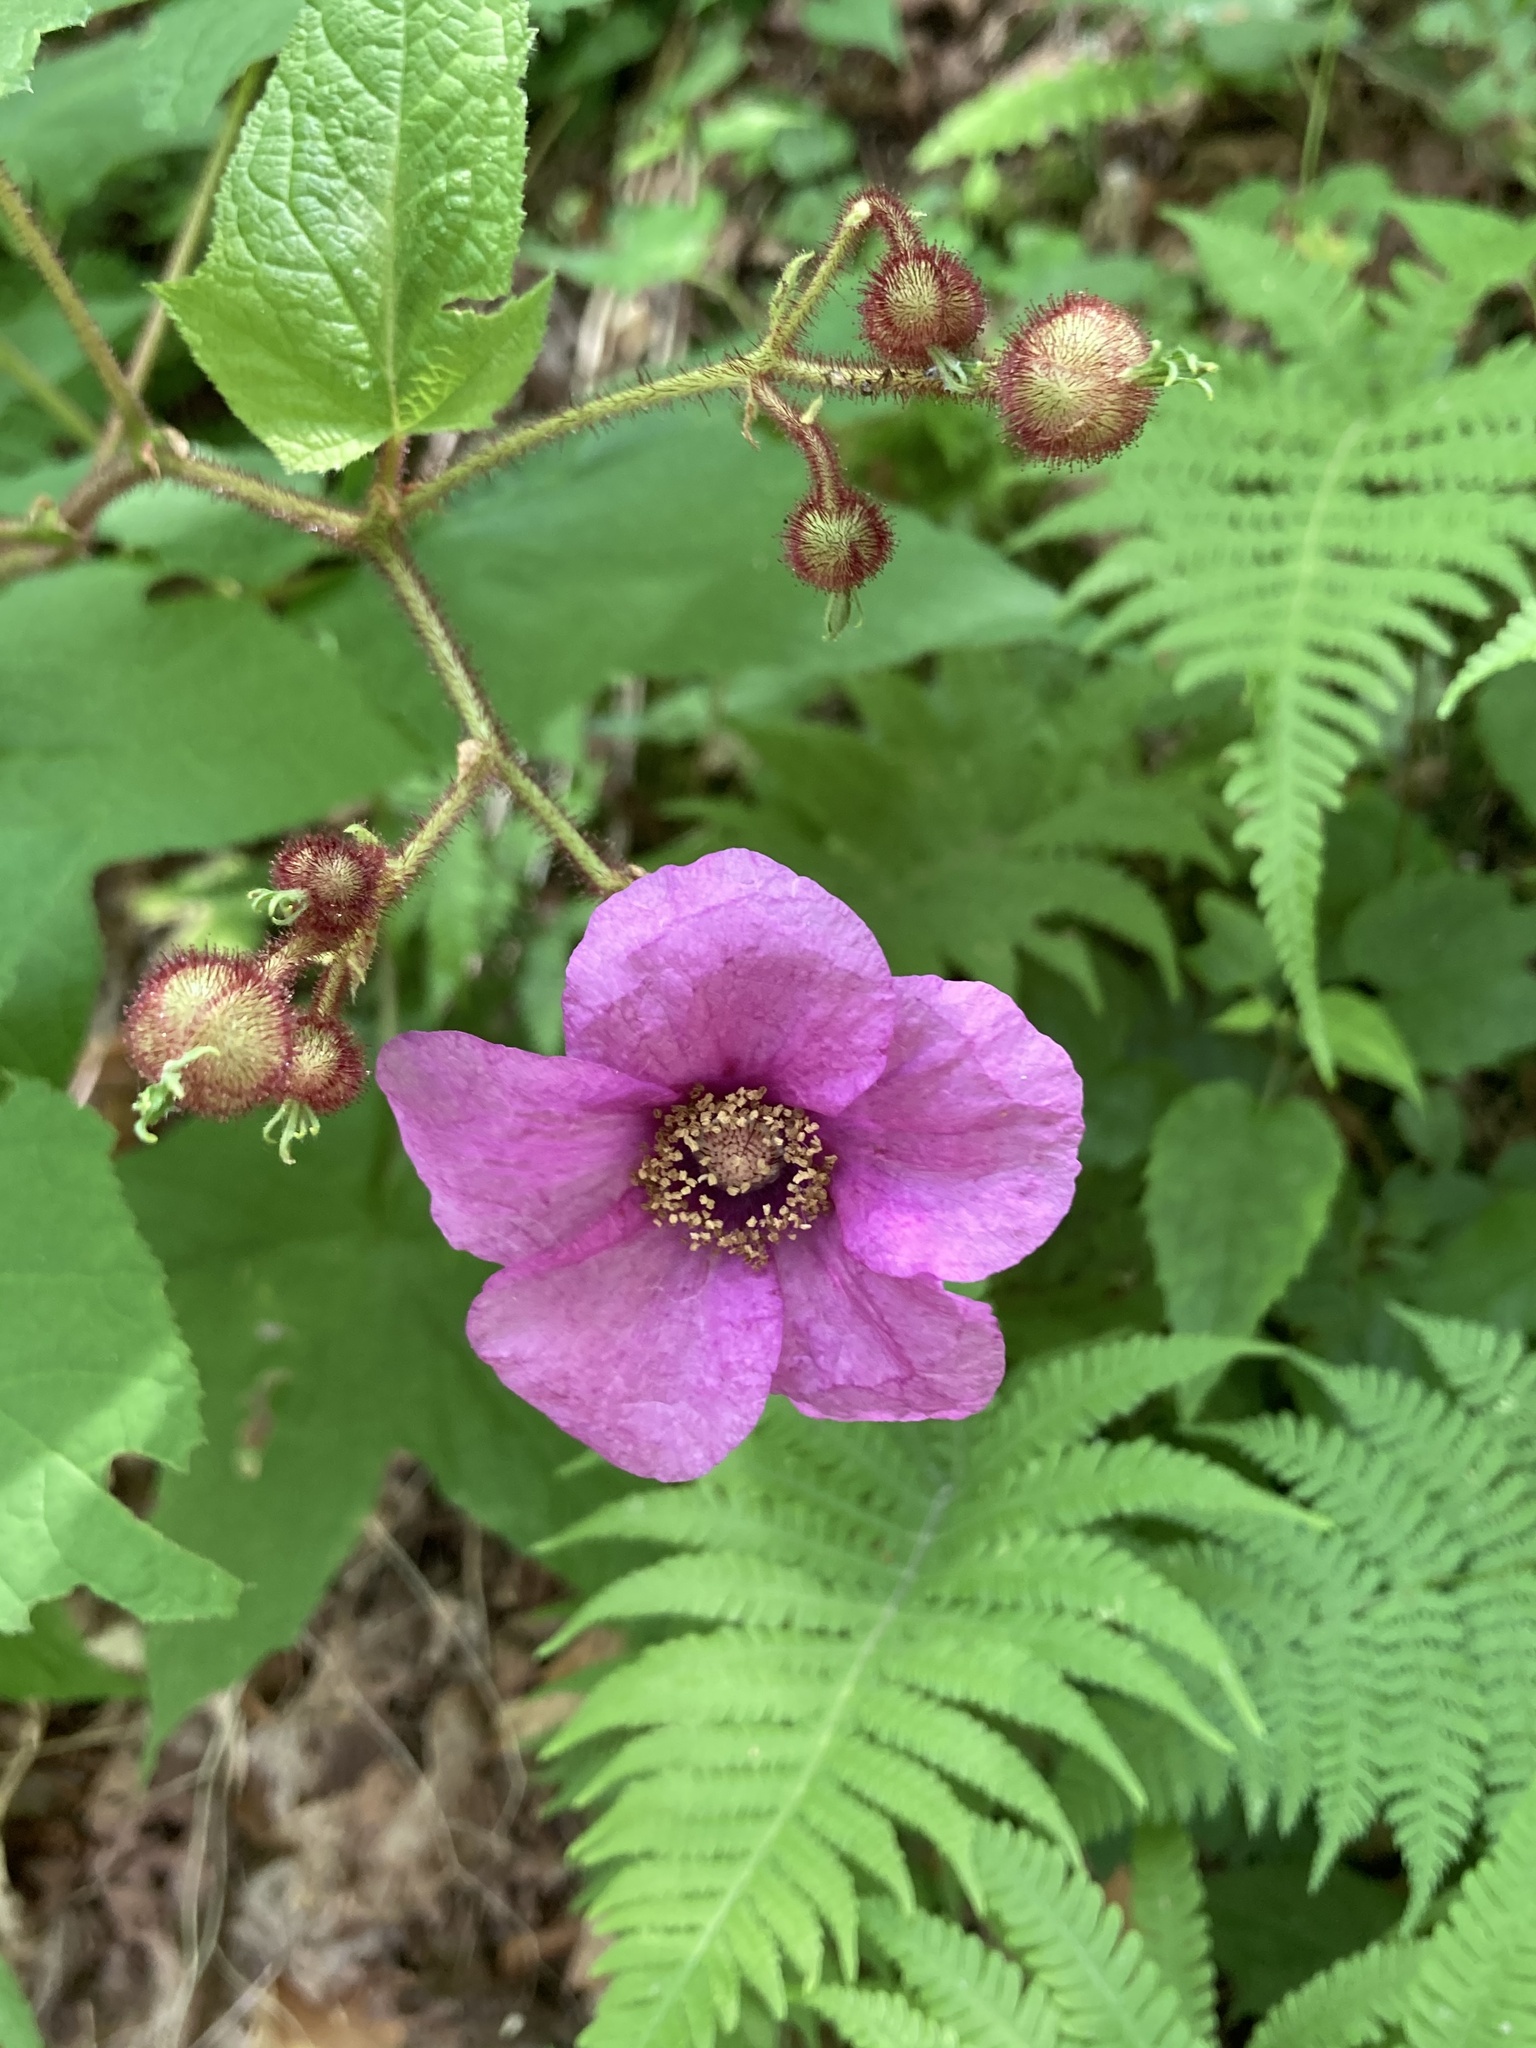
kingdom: Plantae
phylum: Tracheophyta
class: Magnoliopsida
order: Rosales
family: Rosaceae
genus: Rubus
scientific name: Rubus odoratus
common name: Purple-flowered raspberry
